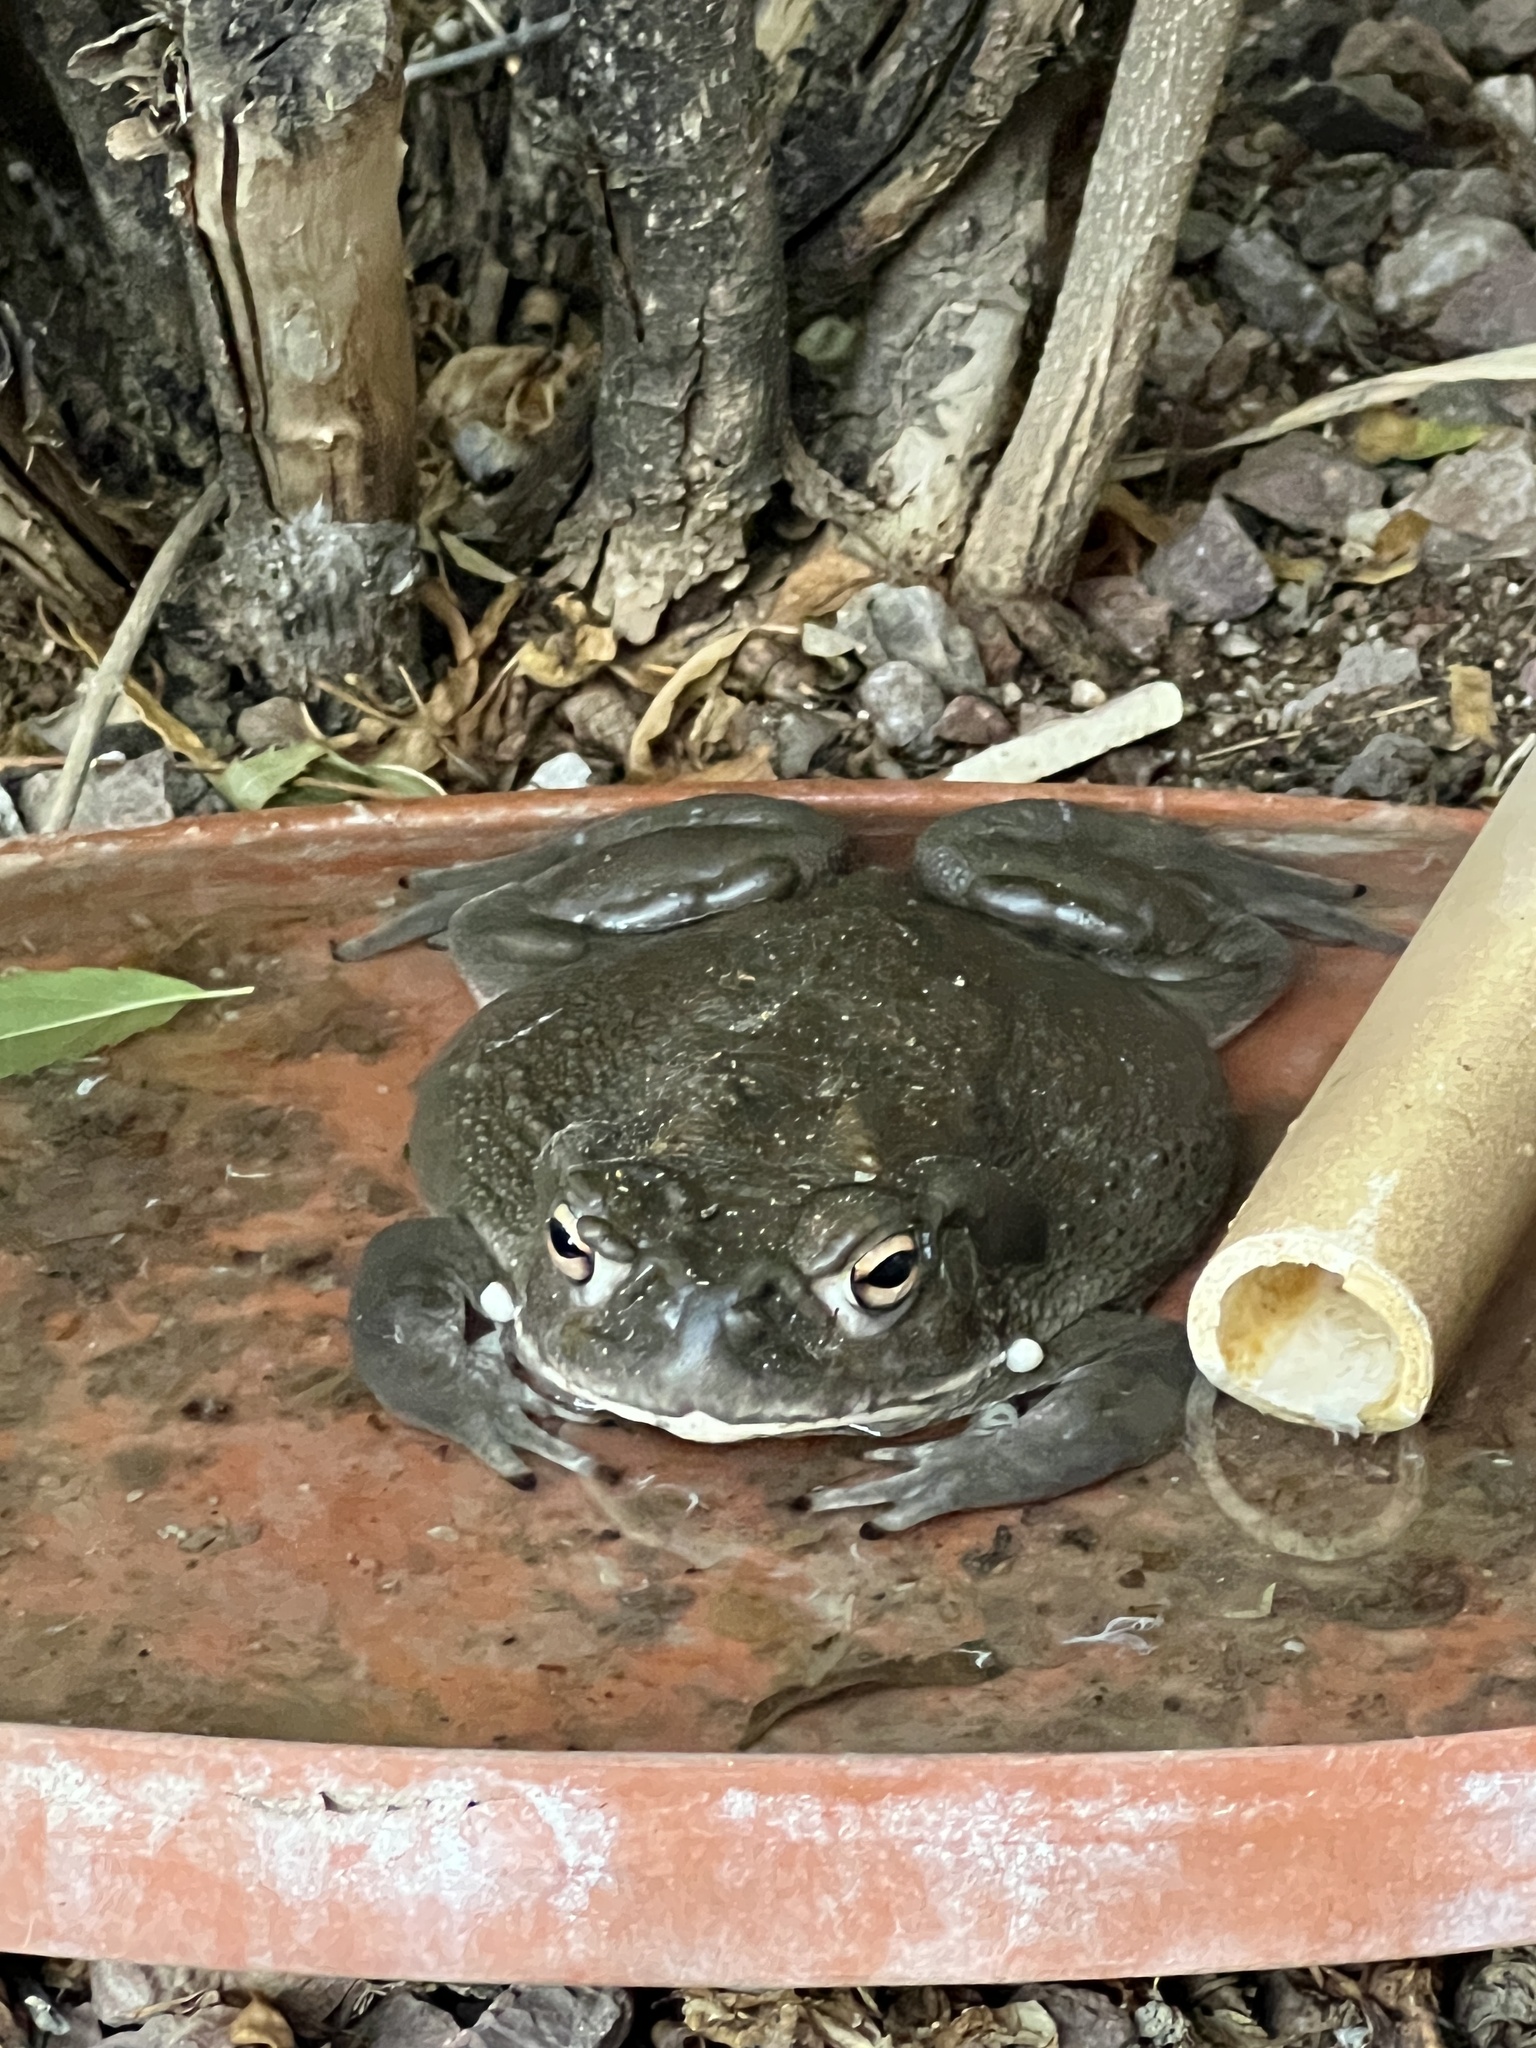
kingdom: Animalia
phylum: Chordata
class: Amphibia
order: Anura
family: Bufonidae
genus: Incilius
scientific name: Incilius alvarius
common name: Sonoran desert toad
